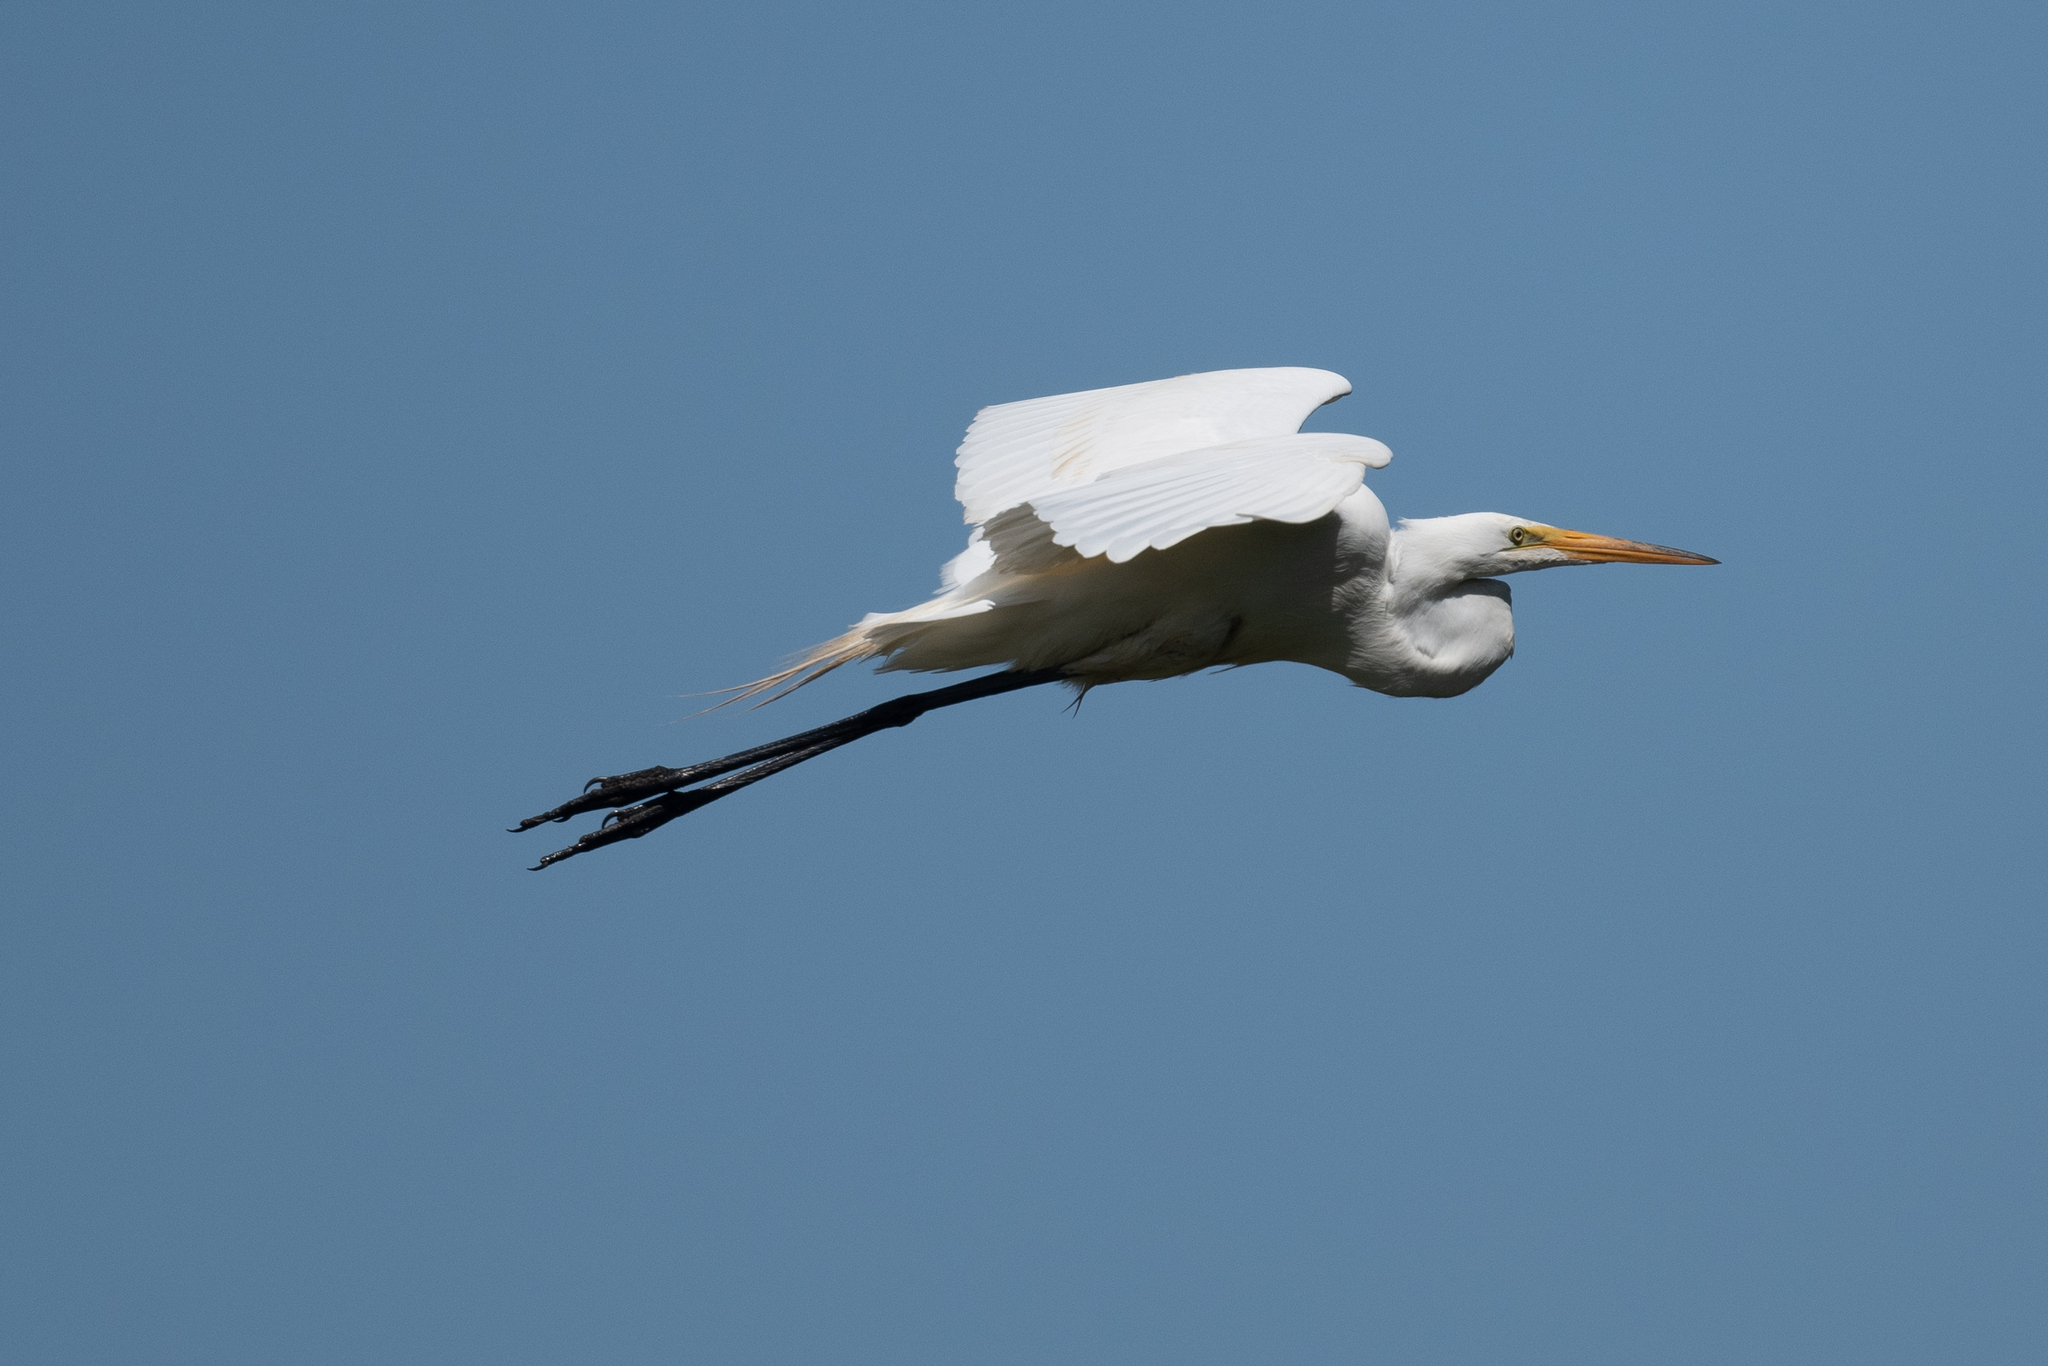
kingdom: Animalia
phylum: Chordata
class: Aves
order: Pelecaniformes
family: Ardeidae
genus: Ardea
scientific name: Ardea alba
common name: Great egret
